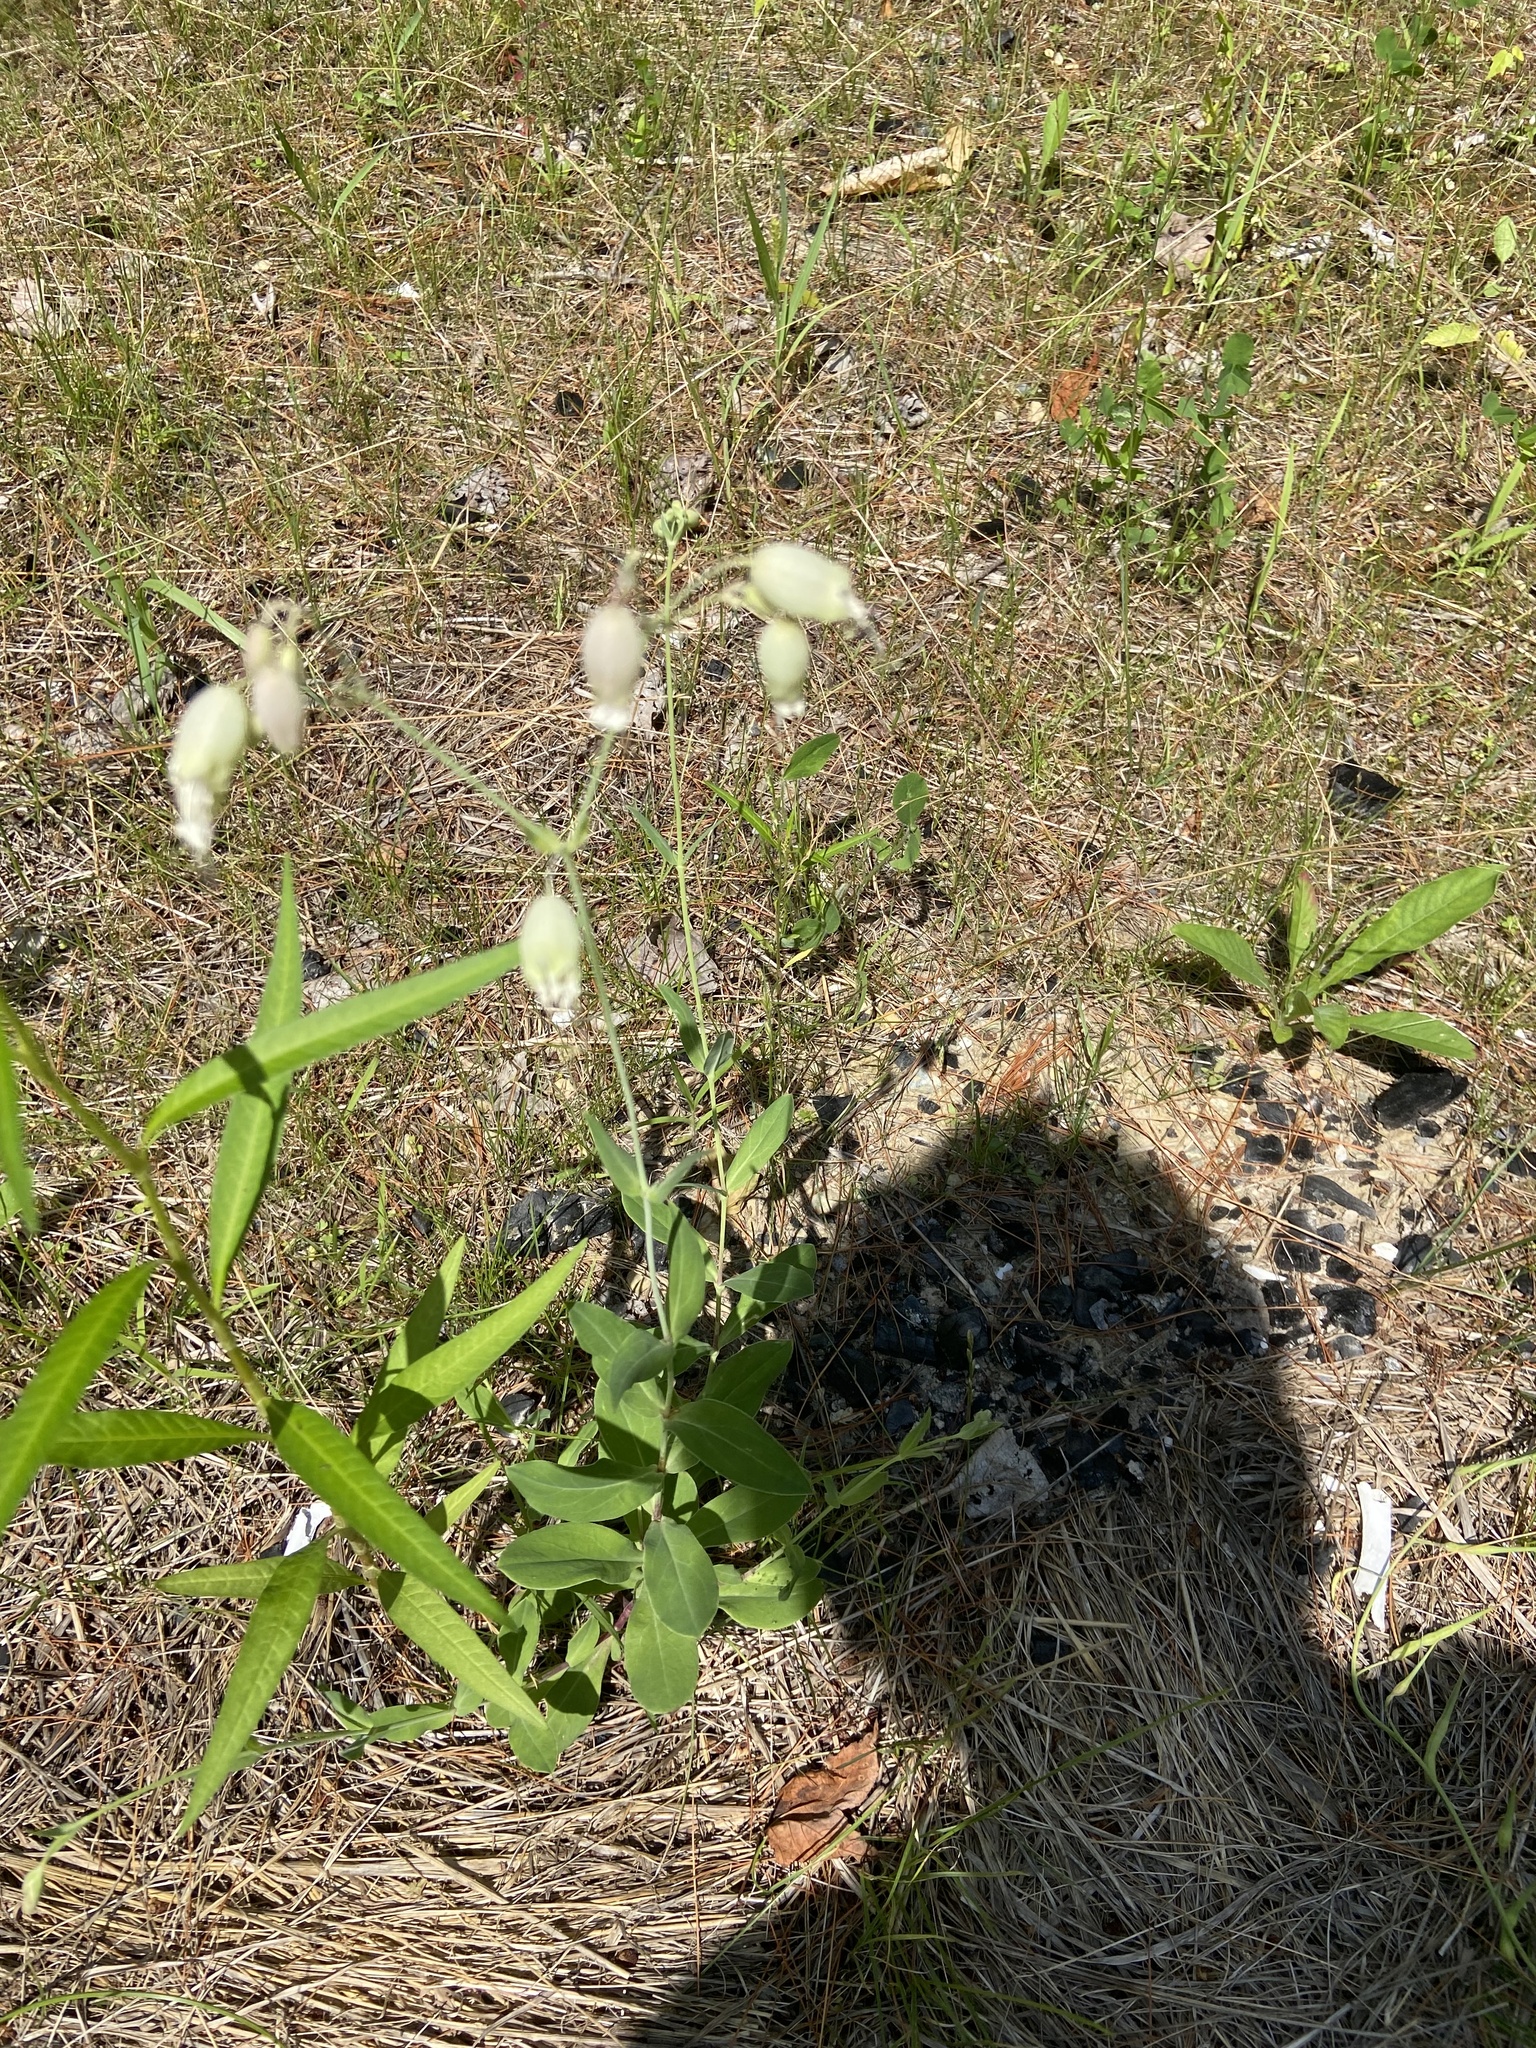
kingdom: Plantae
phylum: Tracheophyta
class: Magnoliopsida
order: Caryophyllales
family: Caryophyllaceae
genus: Silene
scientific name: Silene vulgaris
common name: Bladder campion
